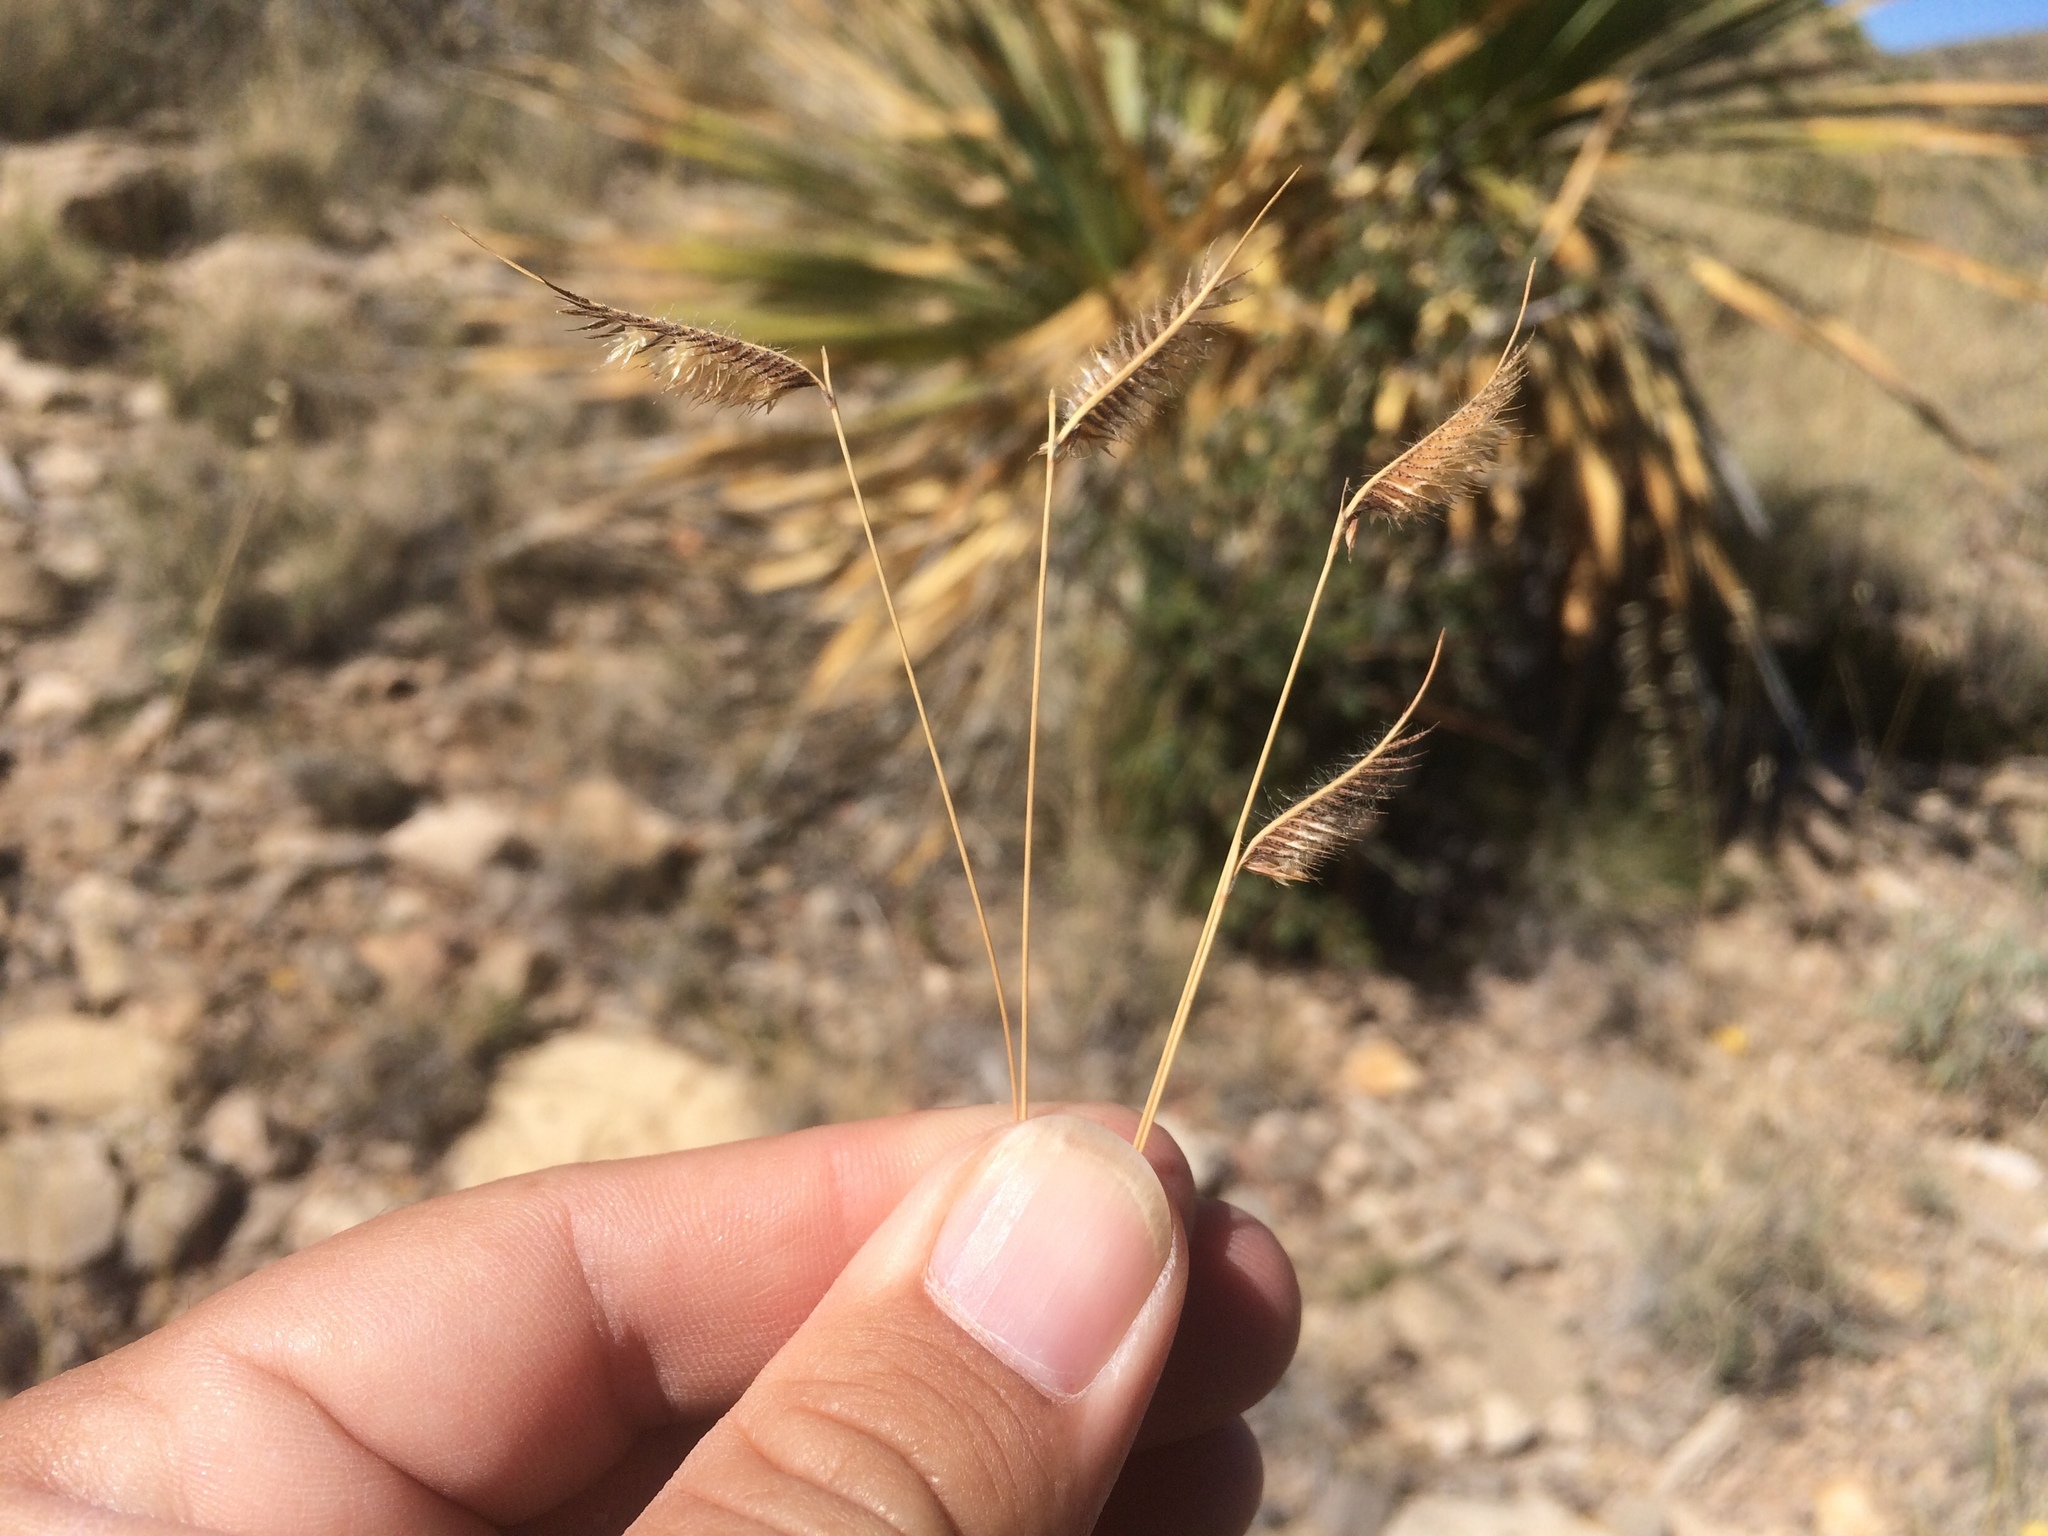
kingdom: Plantae
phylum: Tracheophyta
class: Liliopsida
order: Poales
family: Poaceae
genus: Bouteloua
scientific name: Bouteloua hirsuta
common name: Hairy grama
